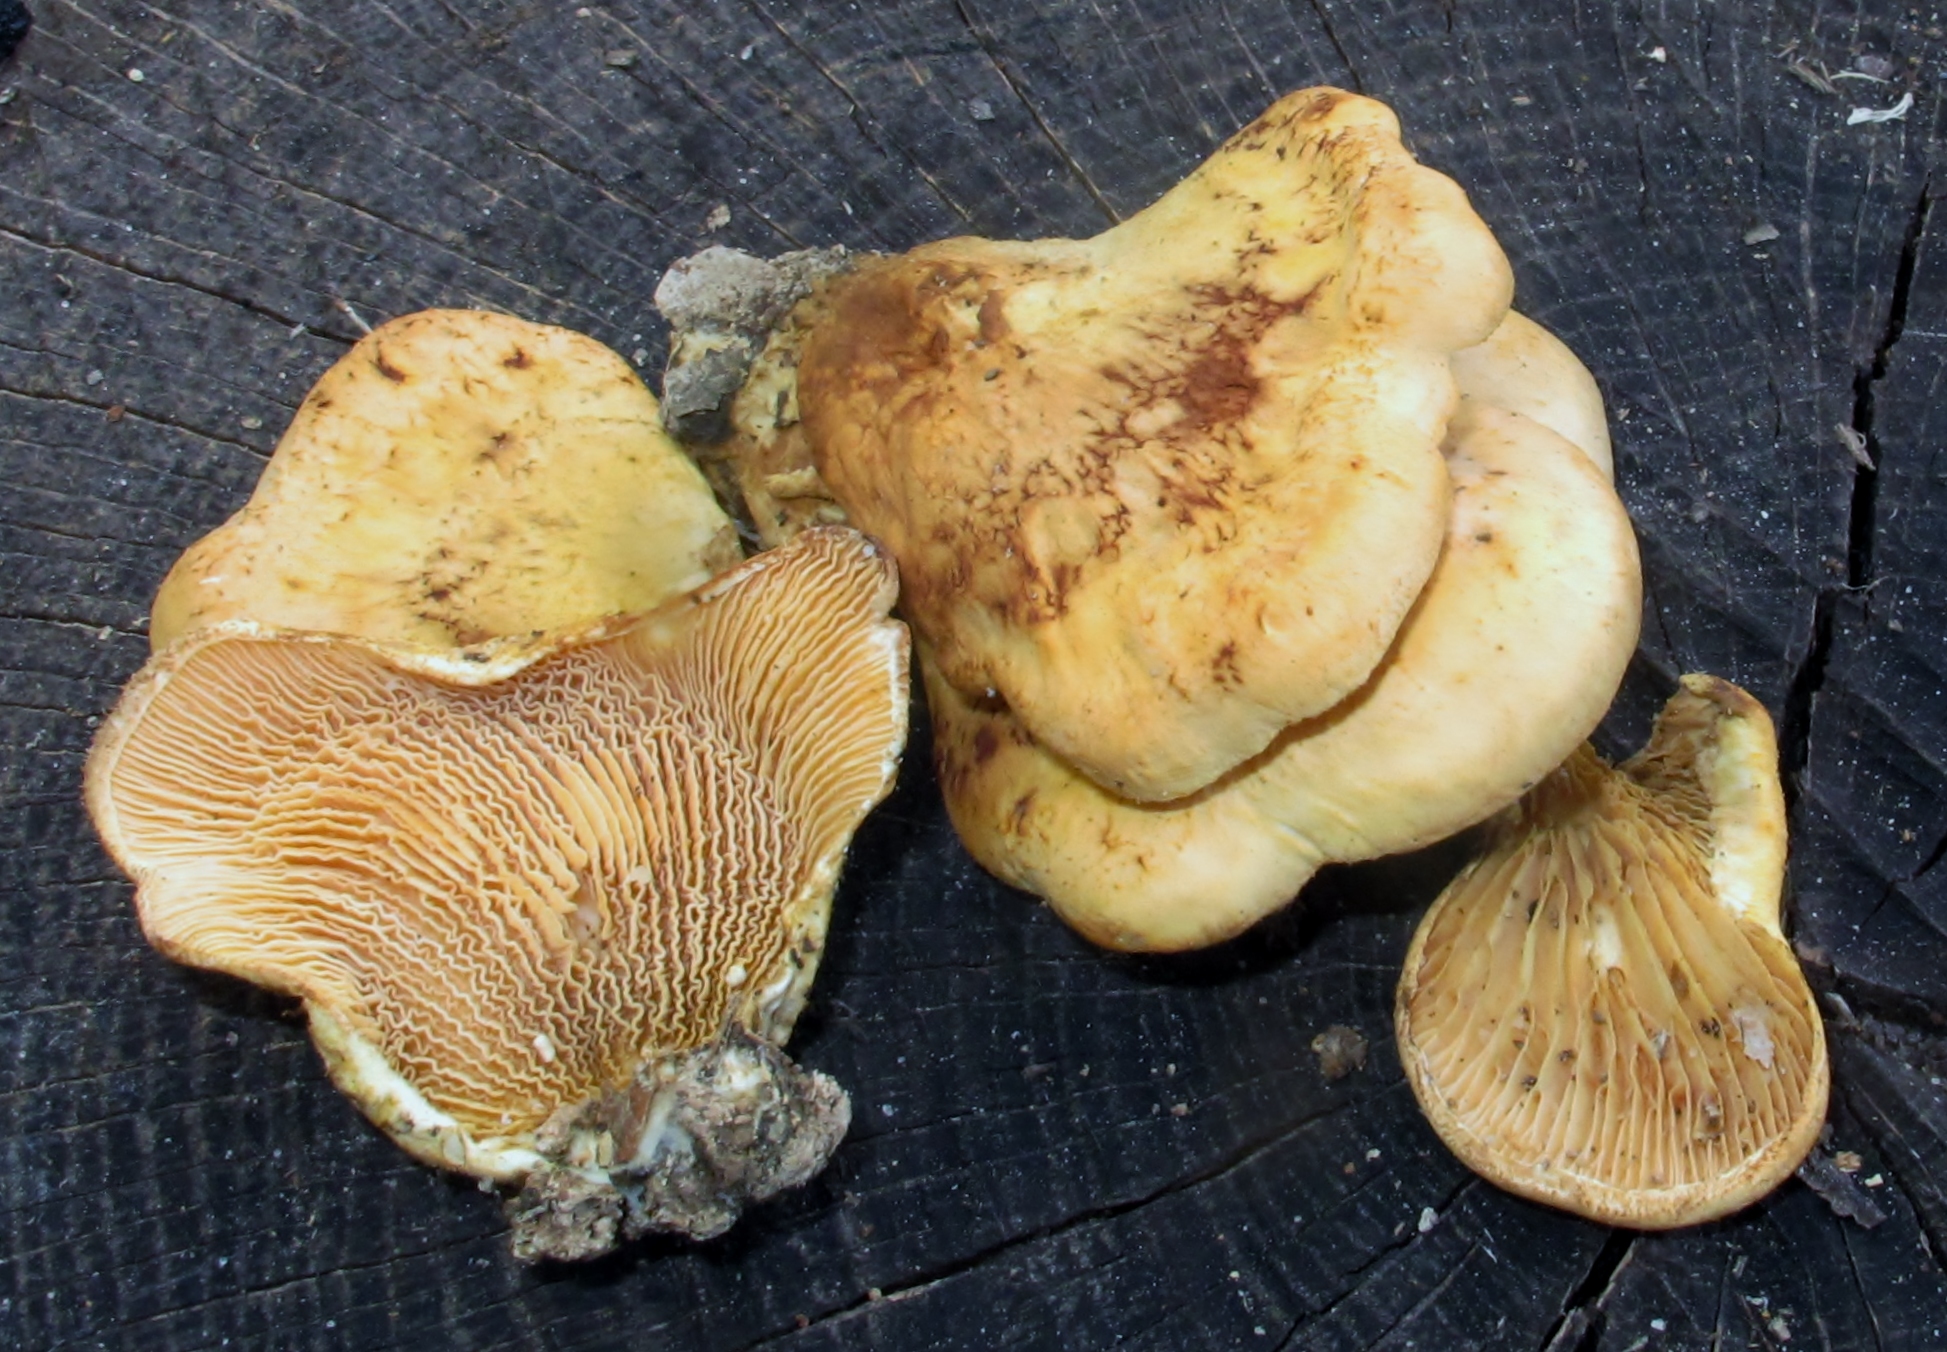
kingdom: Fungi
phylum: Basidiomycota
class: Agaricomycetes
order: Boletales
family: Tapinellaceae
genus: Tapinella
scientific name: Tapinella panuoides
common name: Oyster rollrim
